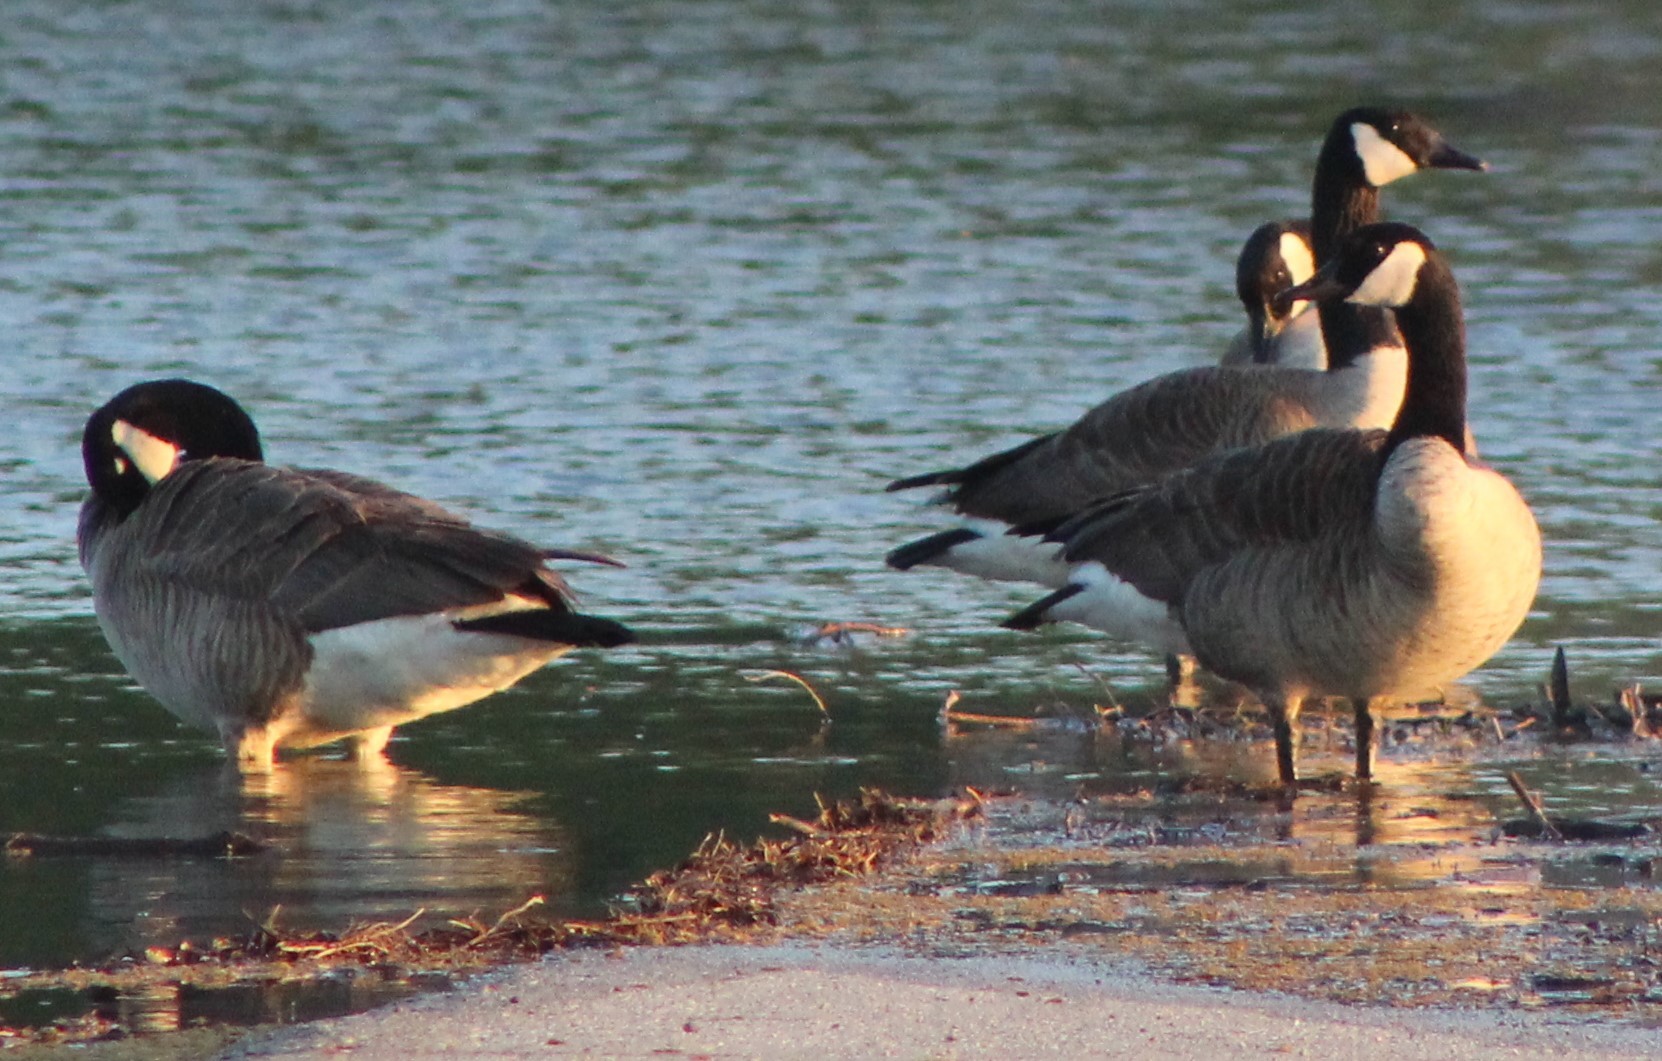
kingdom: Animalia
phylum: Chordata
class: Aves
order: Anseriformes
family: Anatidae
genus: Branta
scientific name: Branta canadensis
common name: Canada goose
